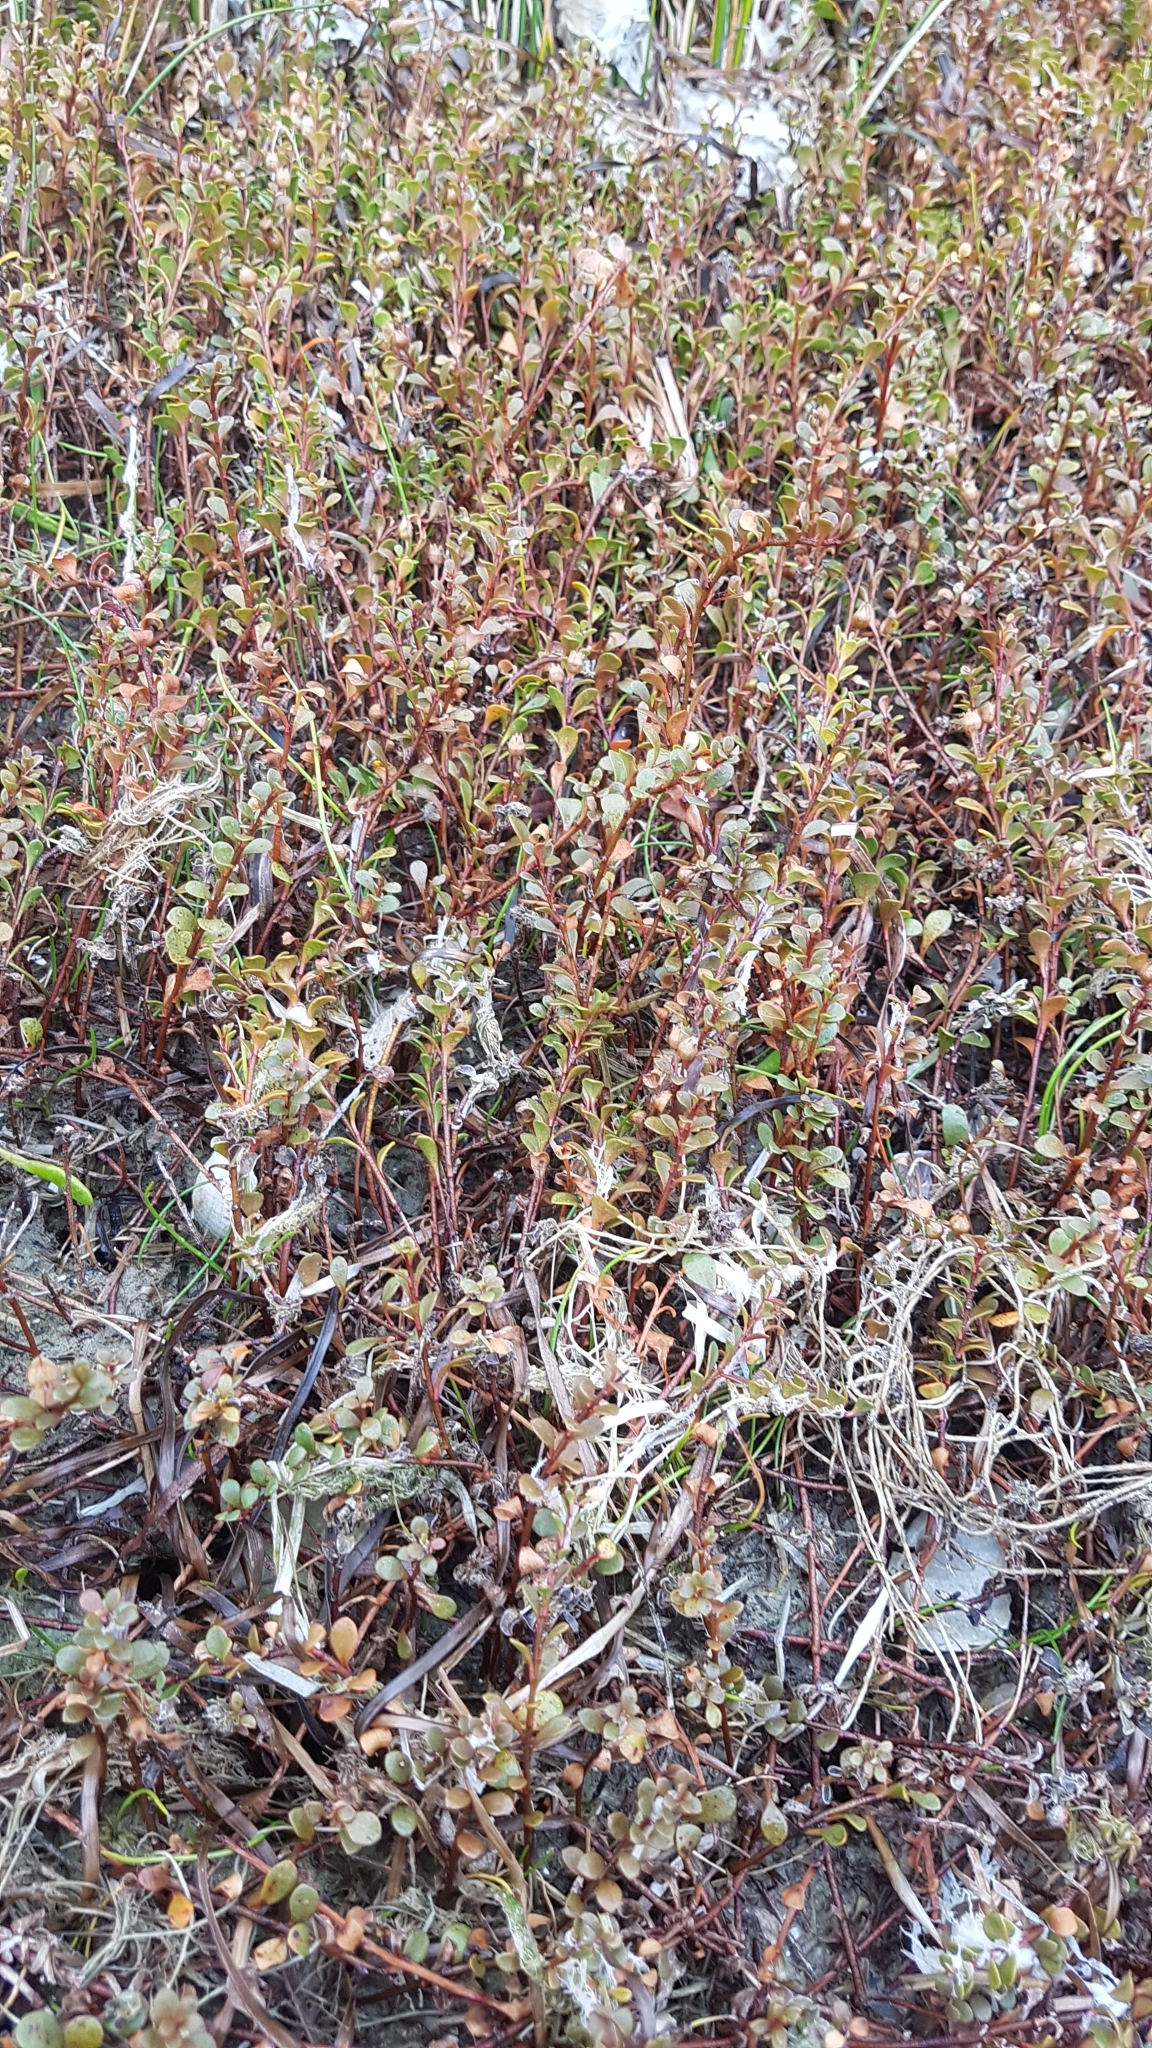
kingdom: Plantae
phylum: Tracheophyta
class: Magnoliopsida
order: Ericales
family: Primulaceae
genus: Samolus
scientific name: Samolus repens
